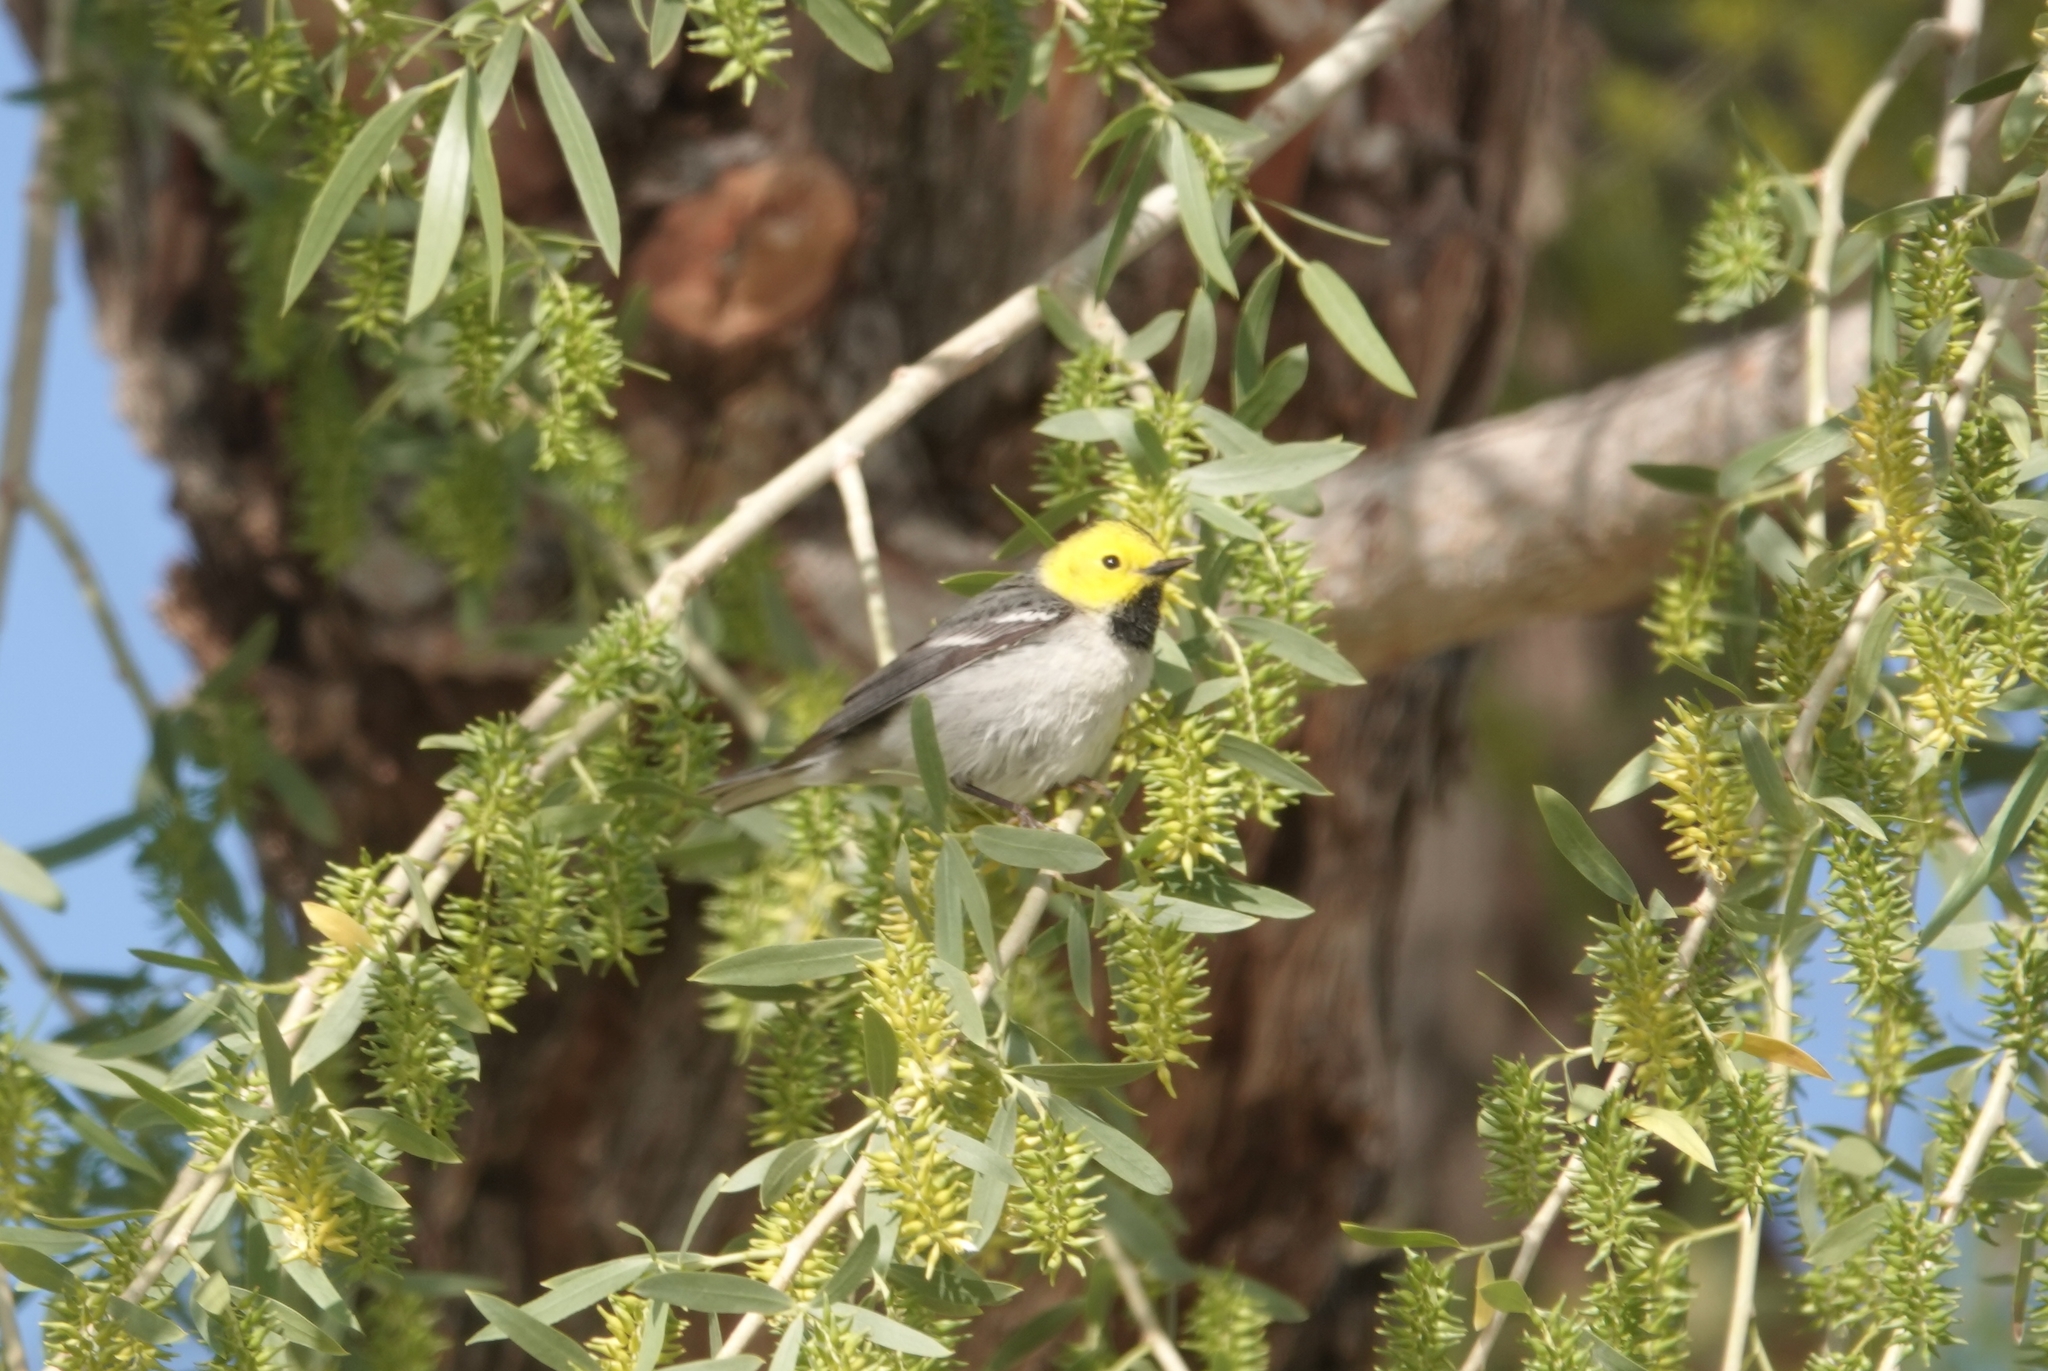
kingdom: Animalia
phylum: Chordata
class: Aves
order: Passeriformes
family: Parulidae
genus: Setophaga
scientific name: Setophaga occidentalis
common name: Hermit warbler
